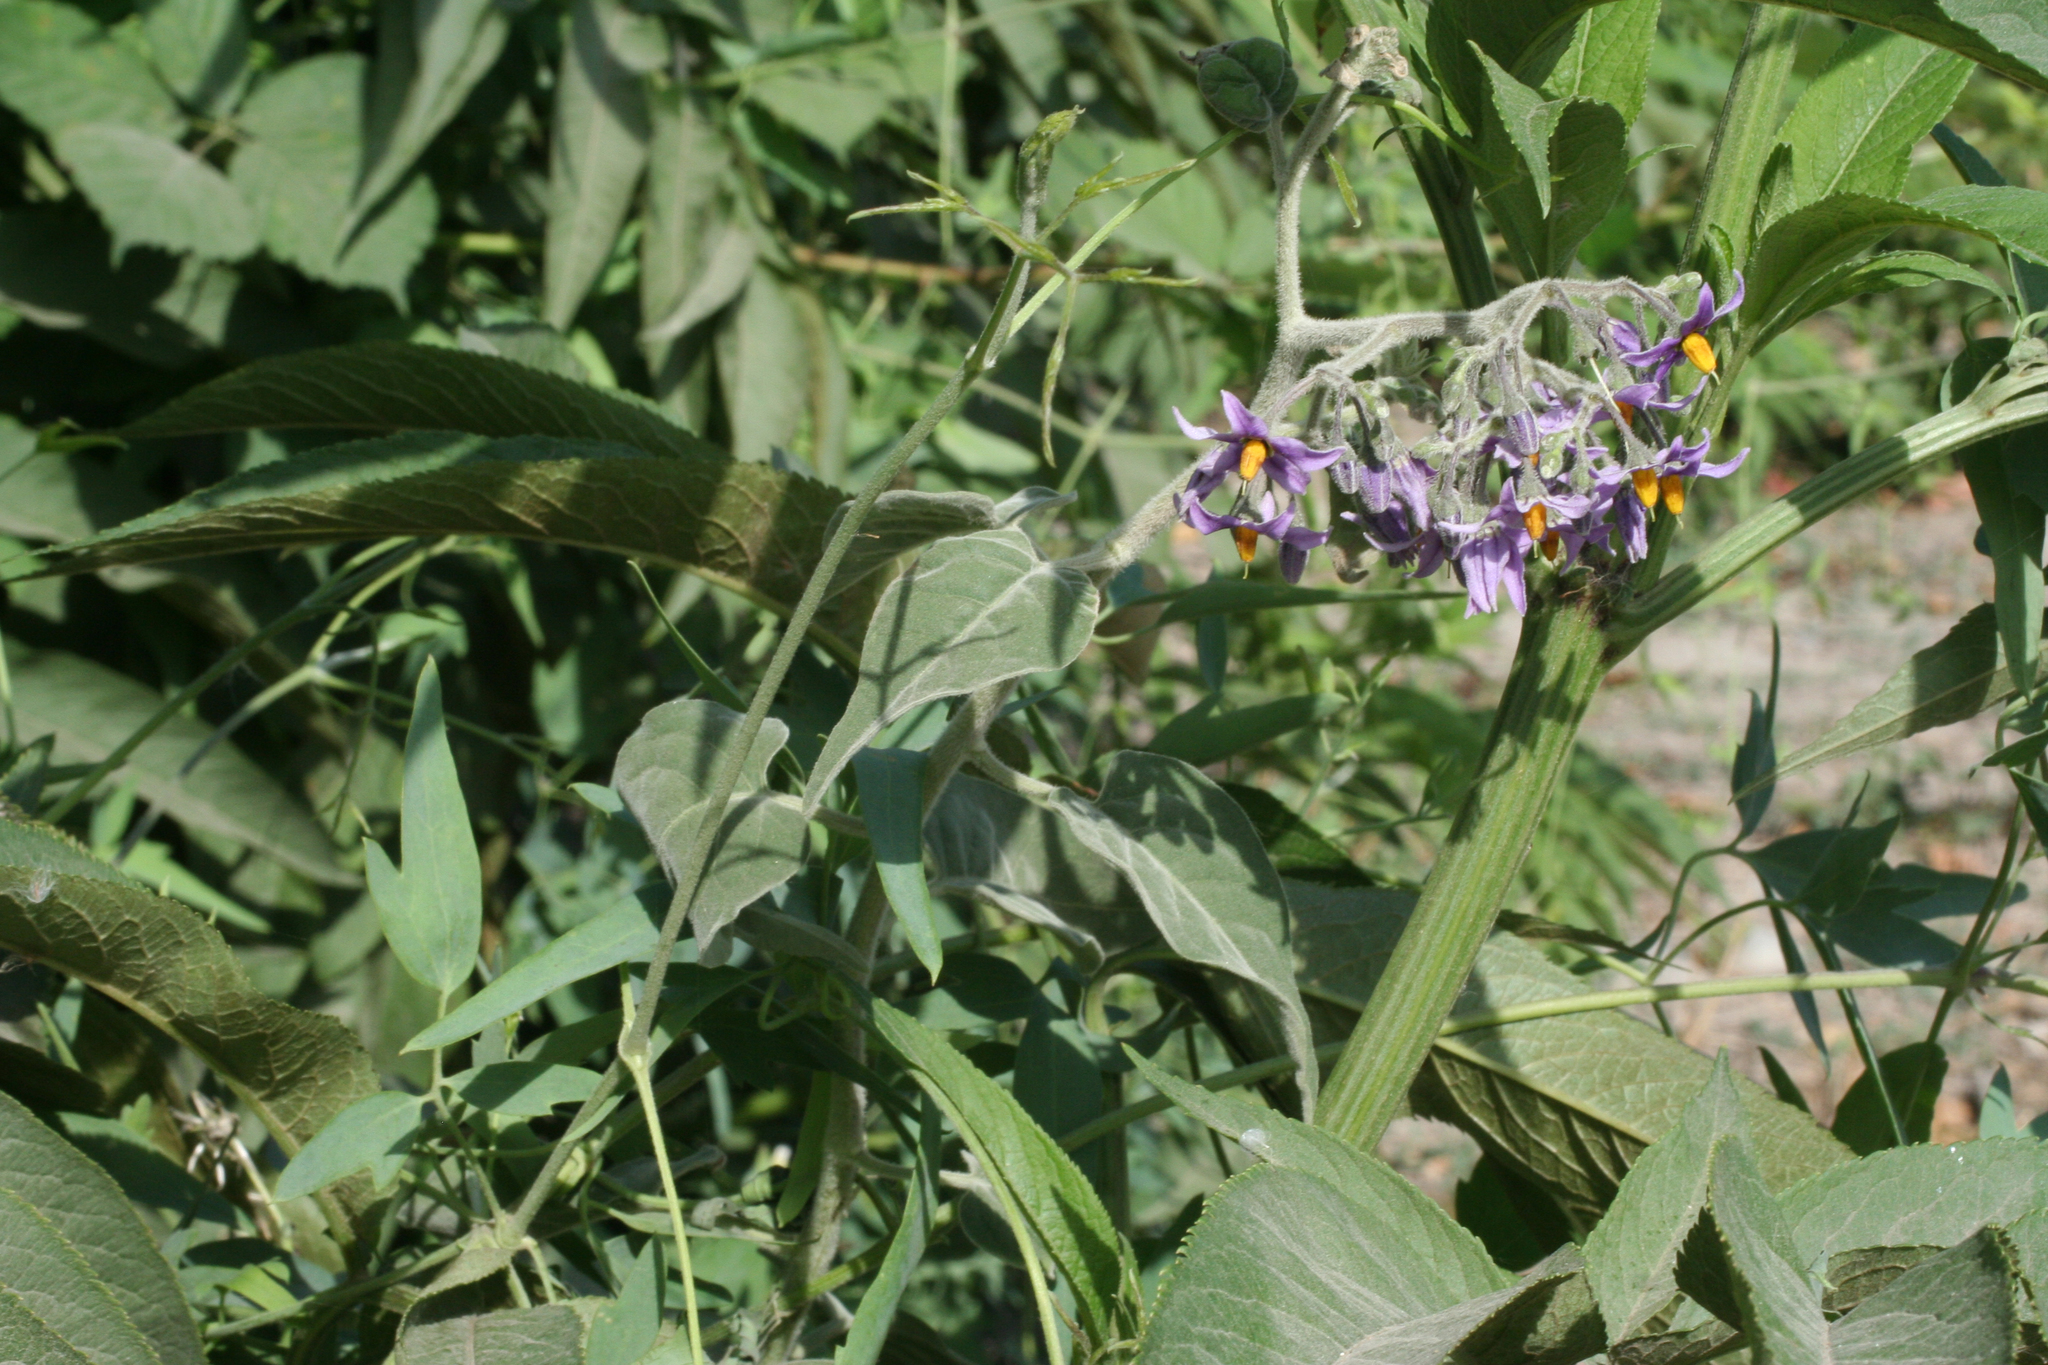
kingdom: Plantae
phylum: Tracheophyta
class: Magnoliopsida
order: Solanales
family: Solanaceae
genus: Solanum
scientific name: Solanum dulcamara
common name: Climbing nightshade
